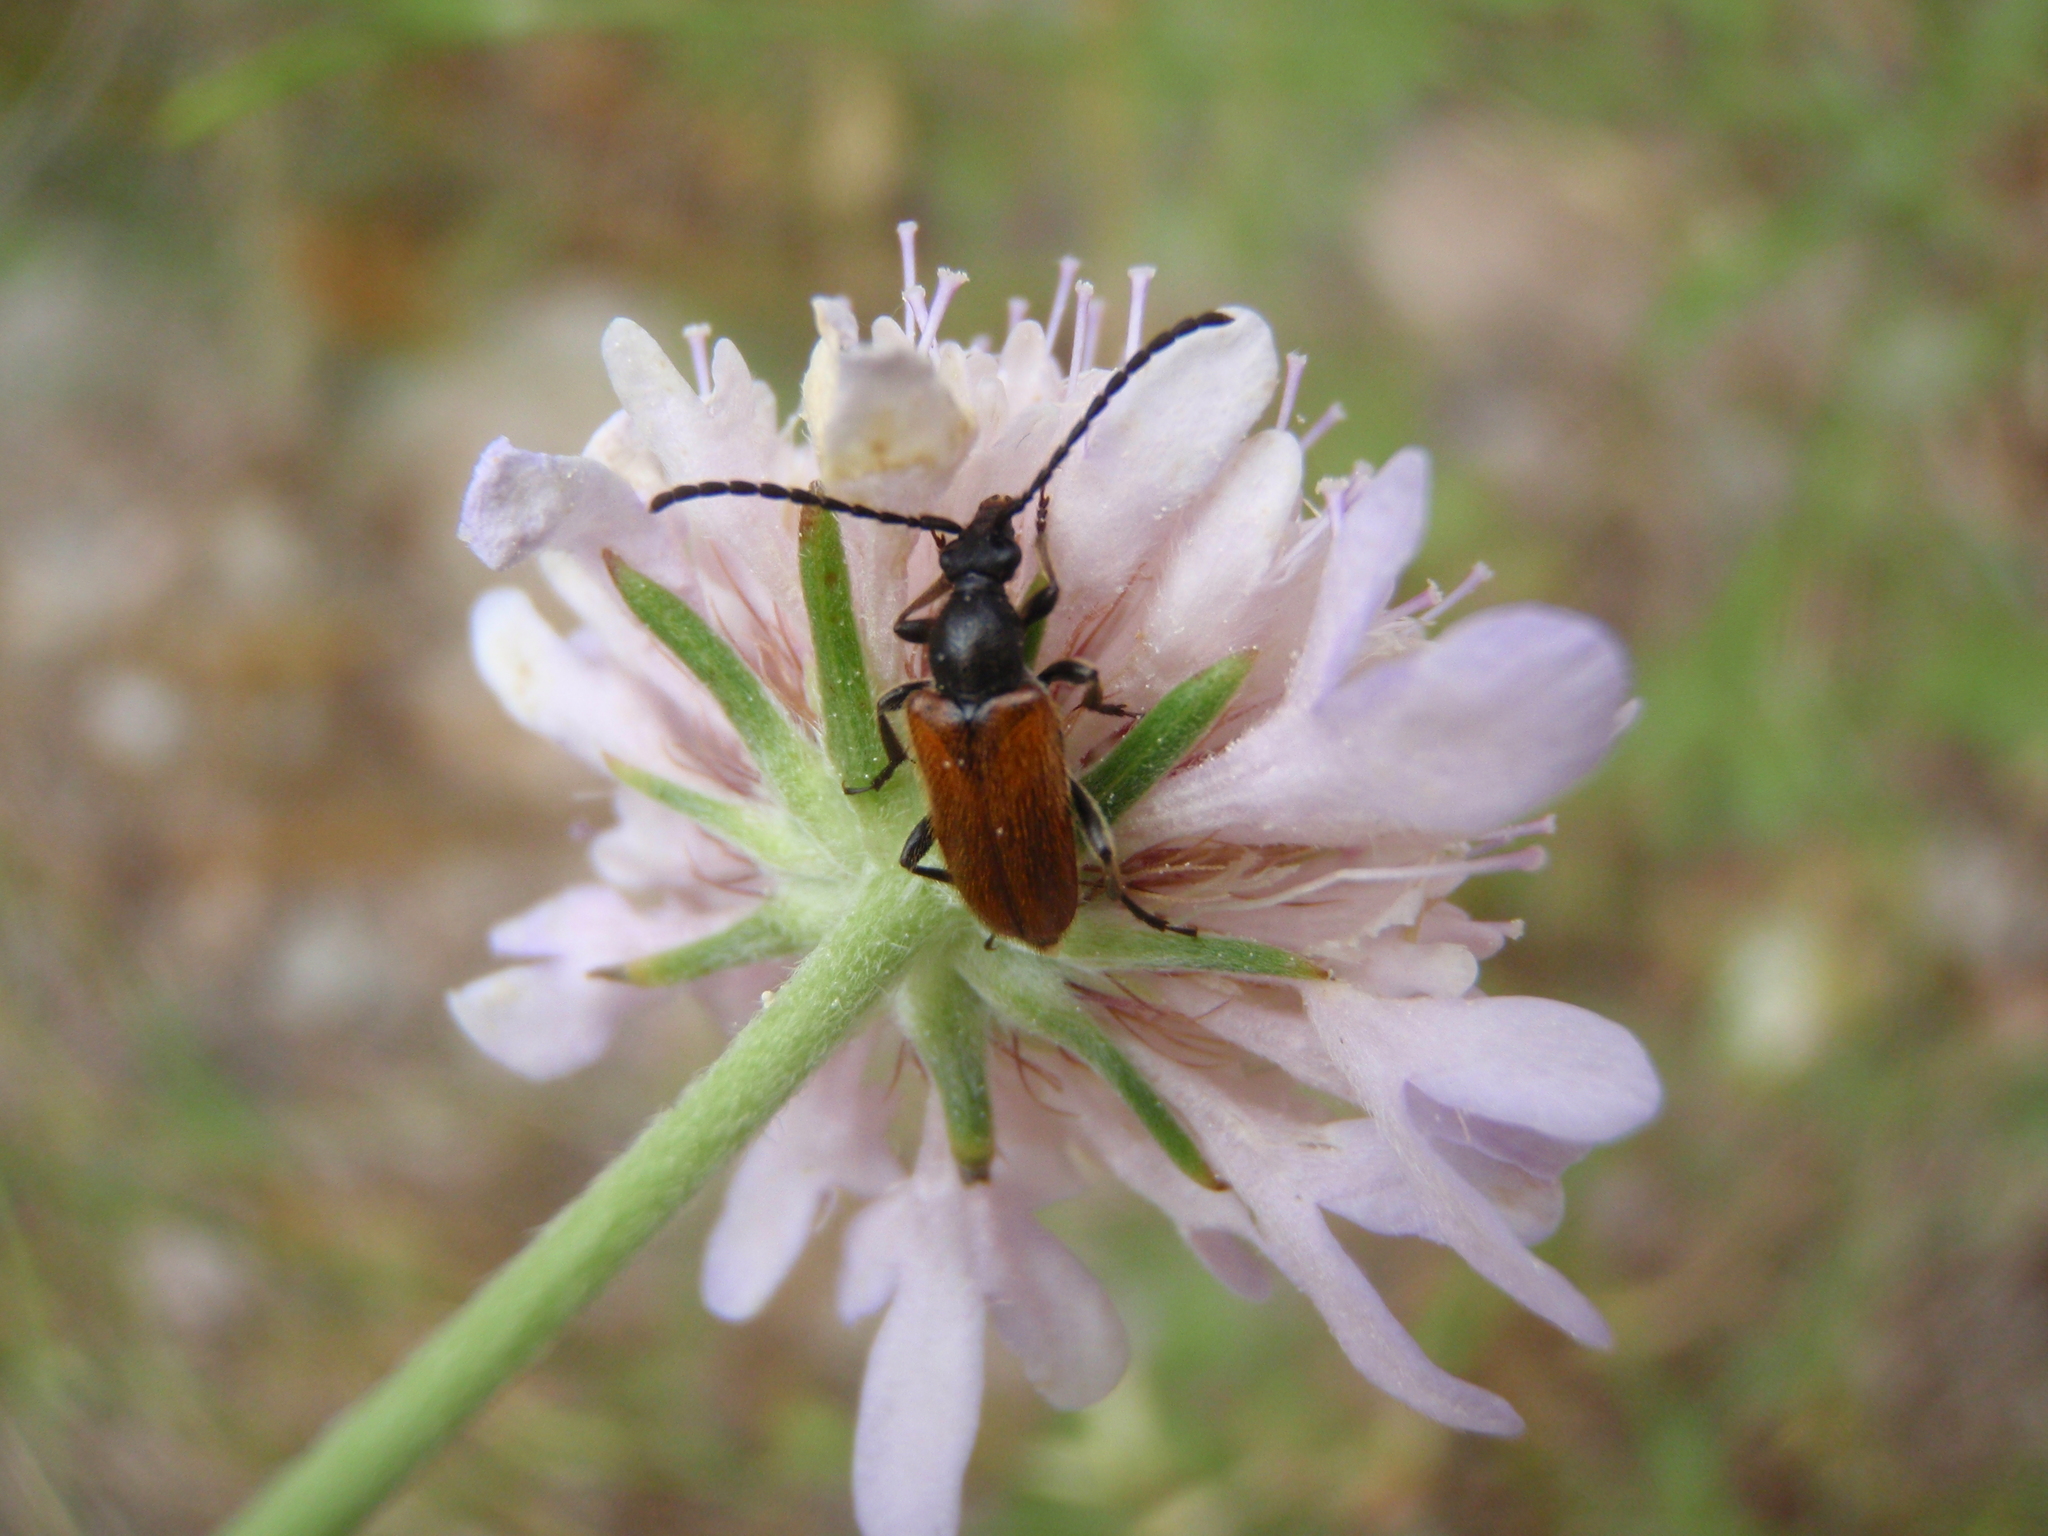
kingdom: Animalia
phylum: Arthropoda
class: Insecta
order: Coleoptera
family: Cerambycidae
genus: Pseudovadonia
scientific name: Pseudovadonia livida
